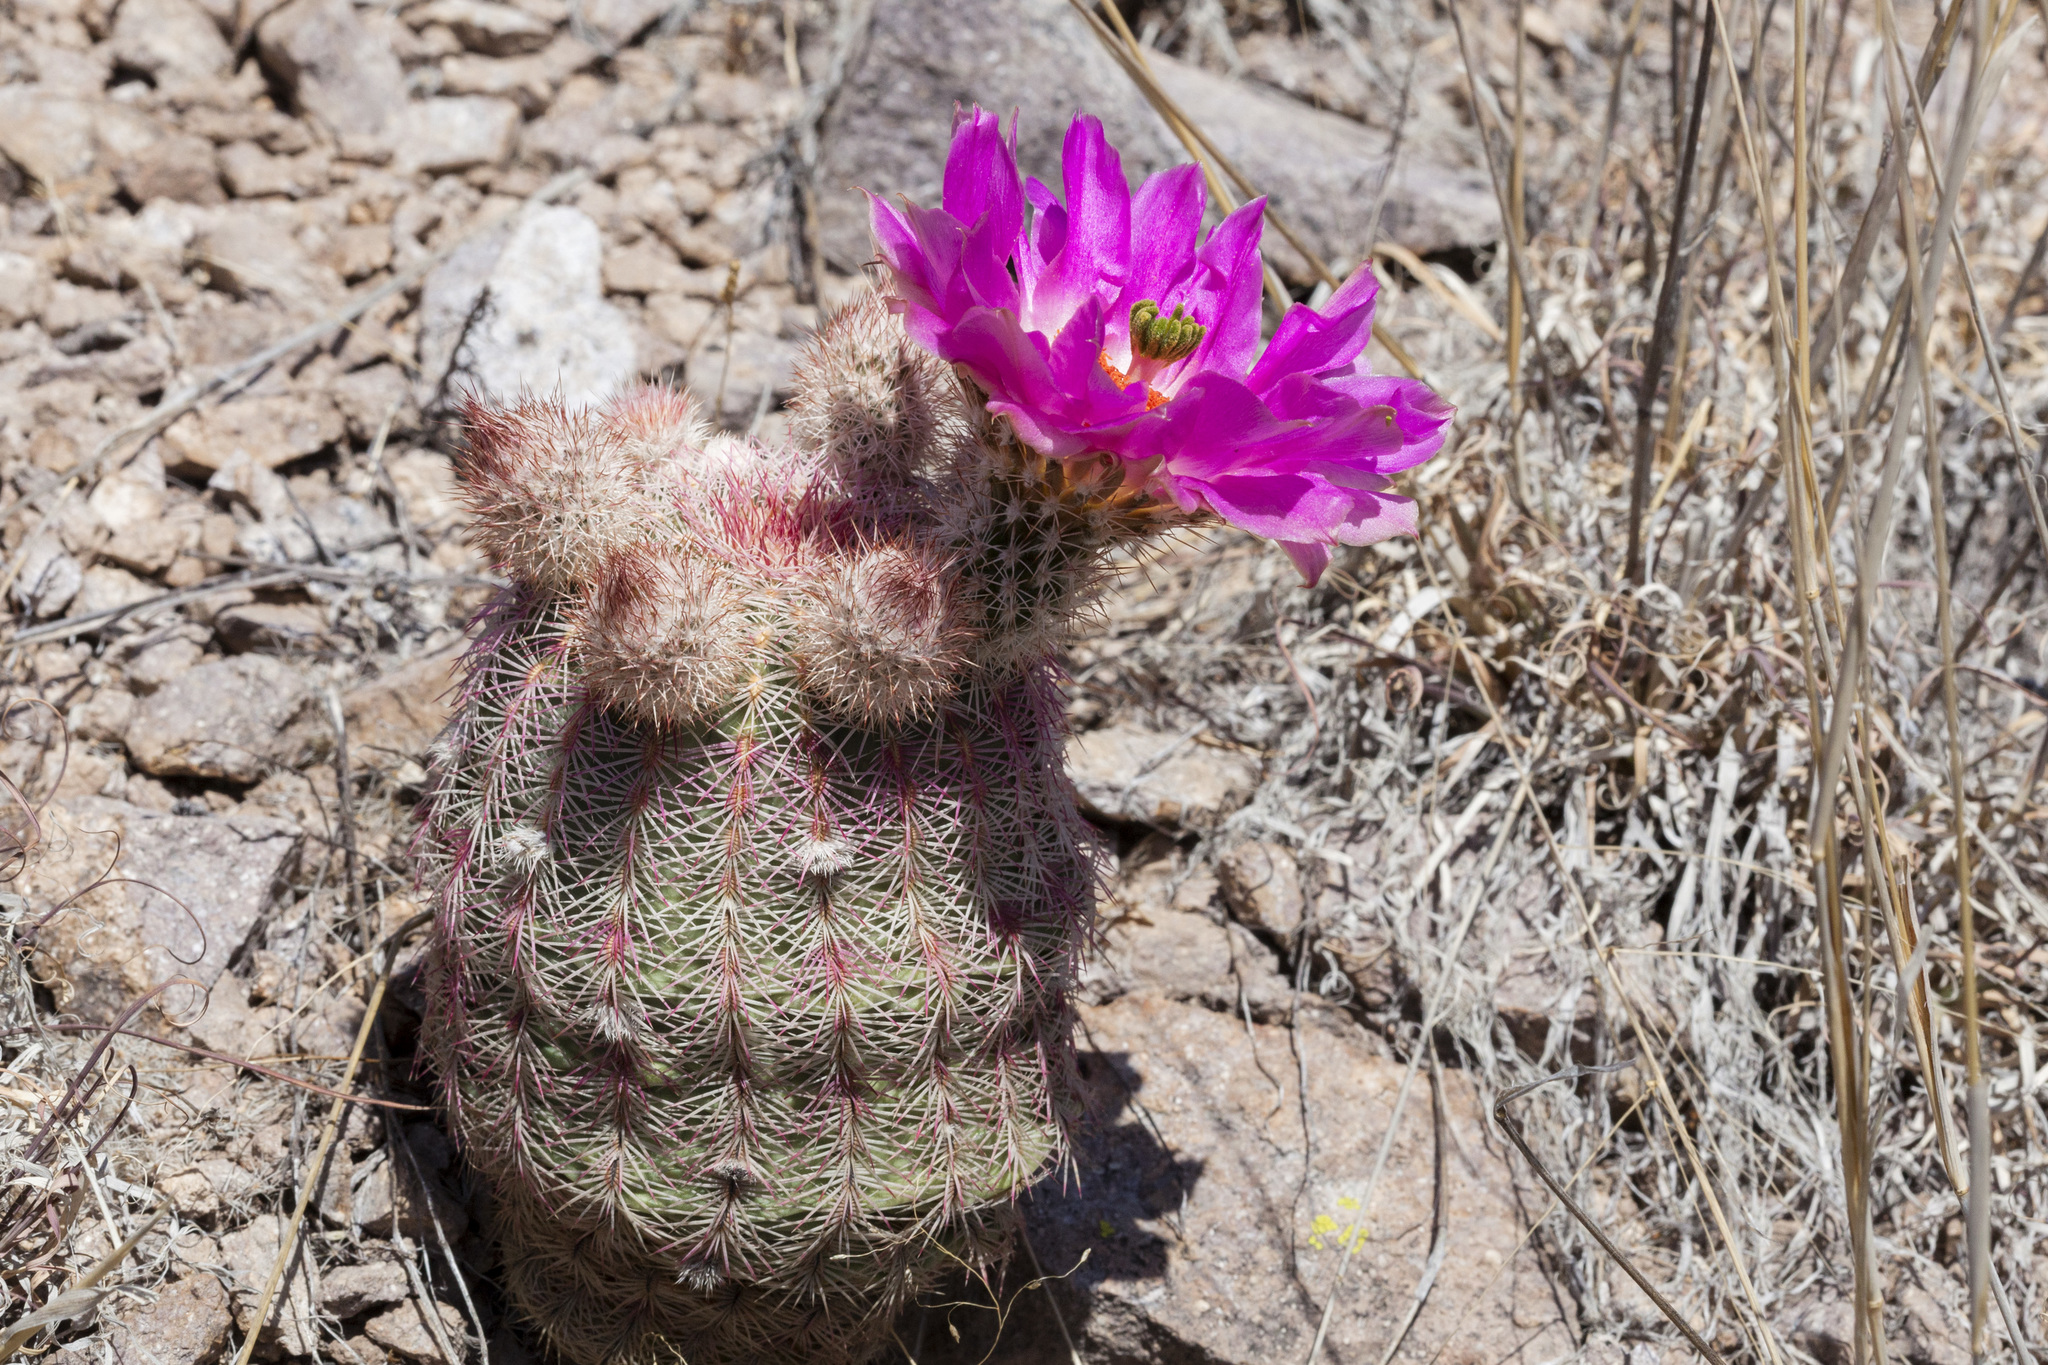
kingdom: Plantae
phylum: Tracheophyta
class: Magnoliopsida
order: Caryophyllales
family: Cactaceae
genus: Echinocereus
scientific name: Echinocereus rigidissimus
